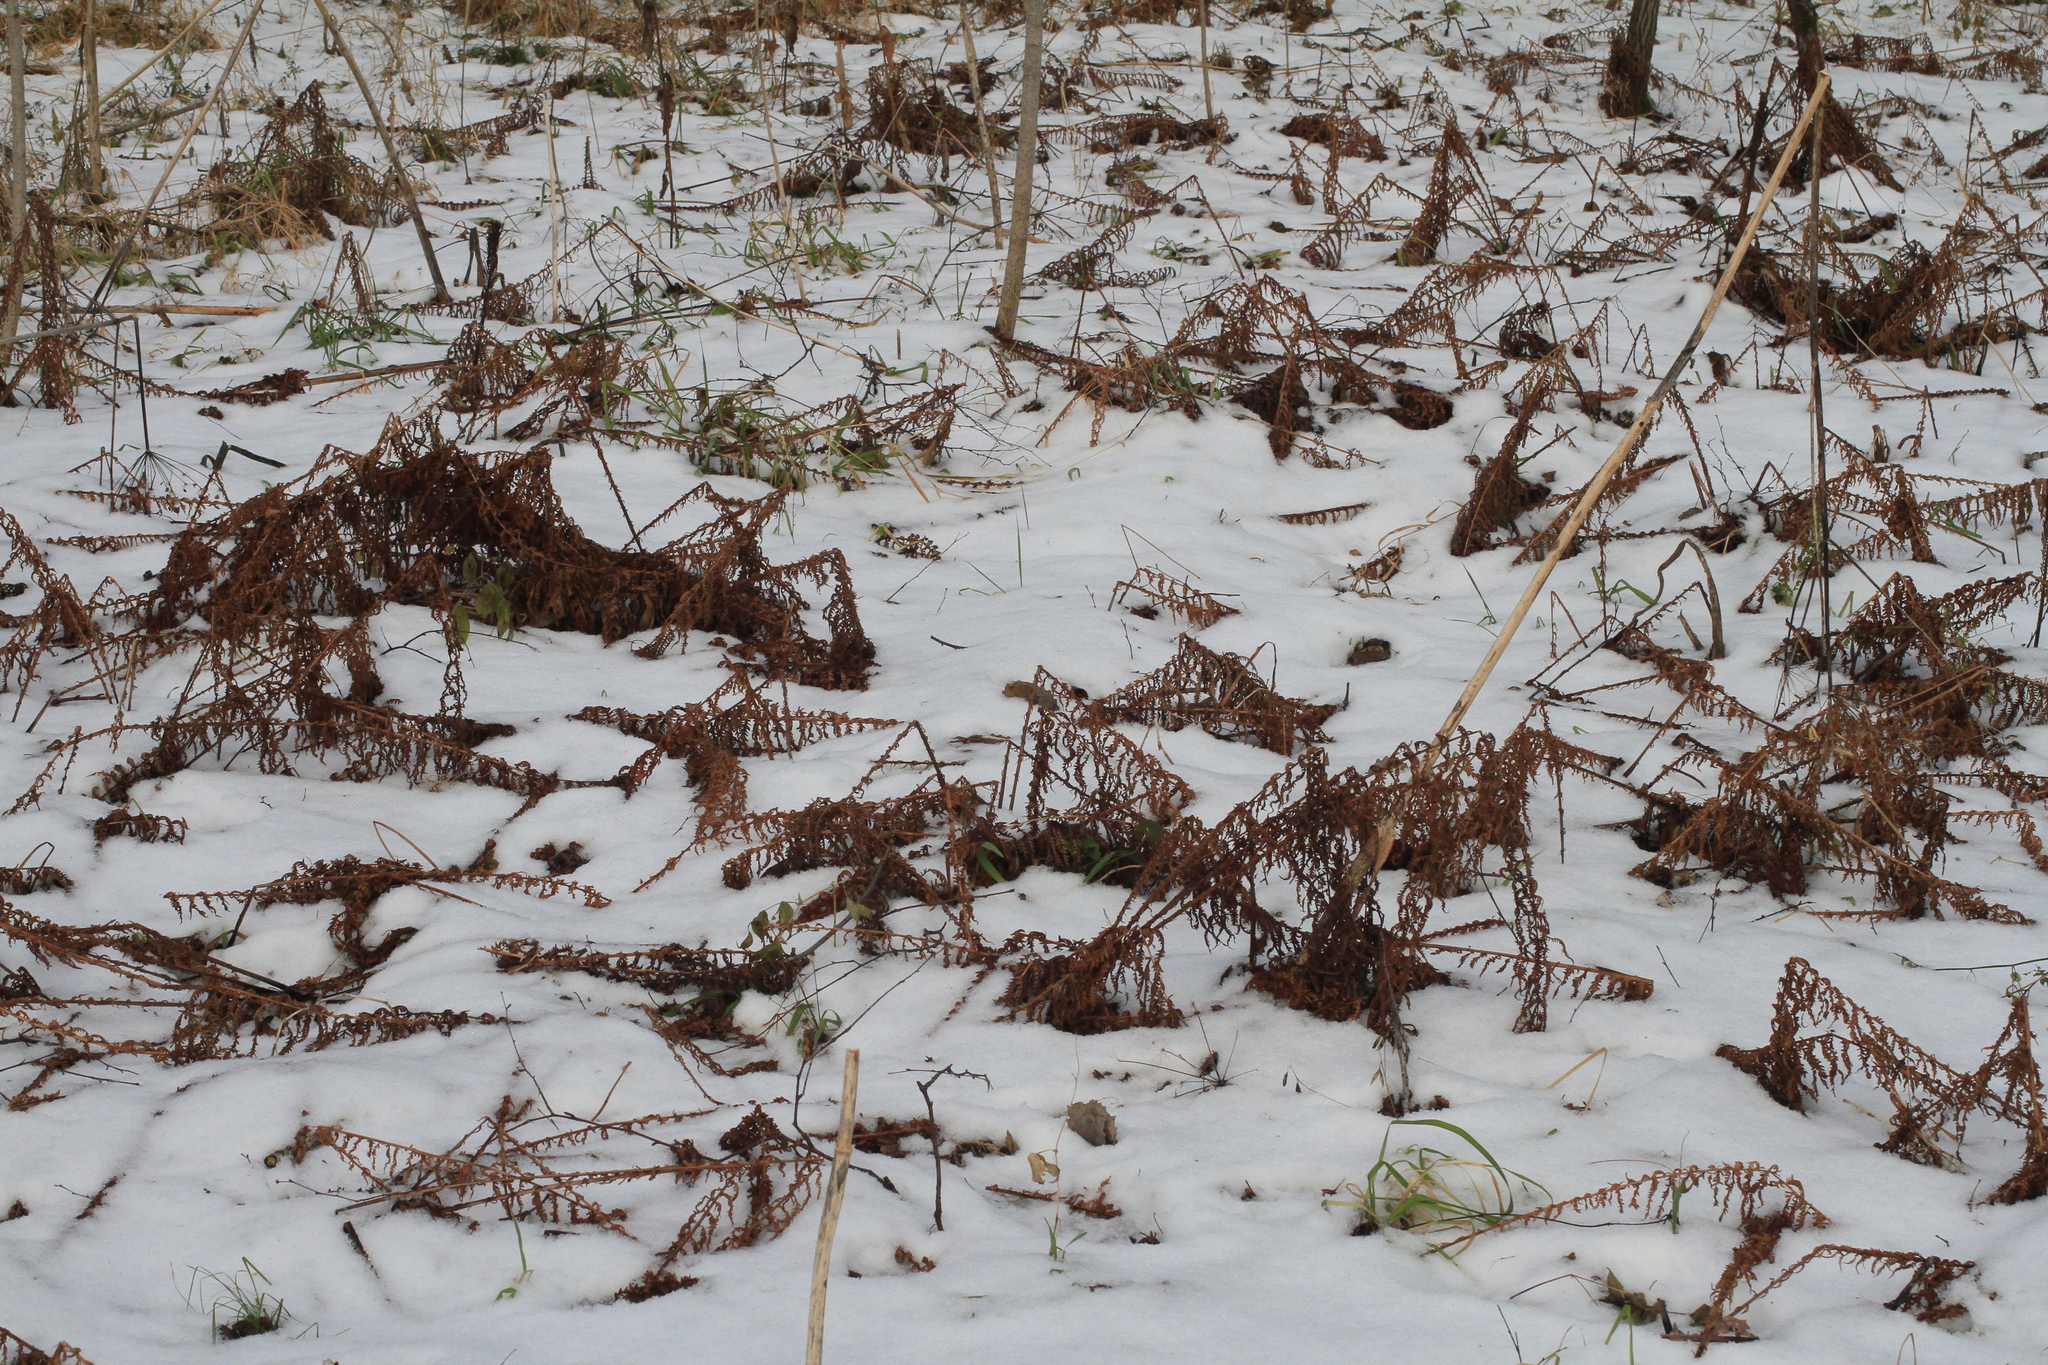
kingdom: Plantae
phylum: Tracheophyta
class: Polypodiopsida
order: Polypodiales
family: Onocleaceae
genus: Matteuccia
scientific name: Matteuccia struthiopteris
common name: Ostrich fern
